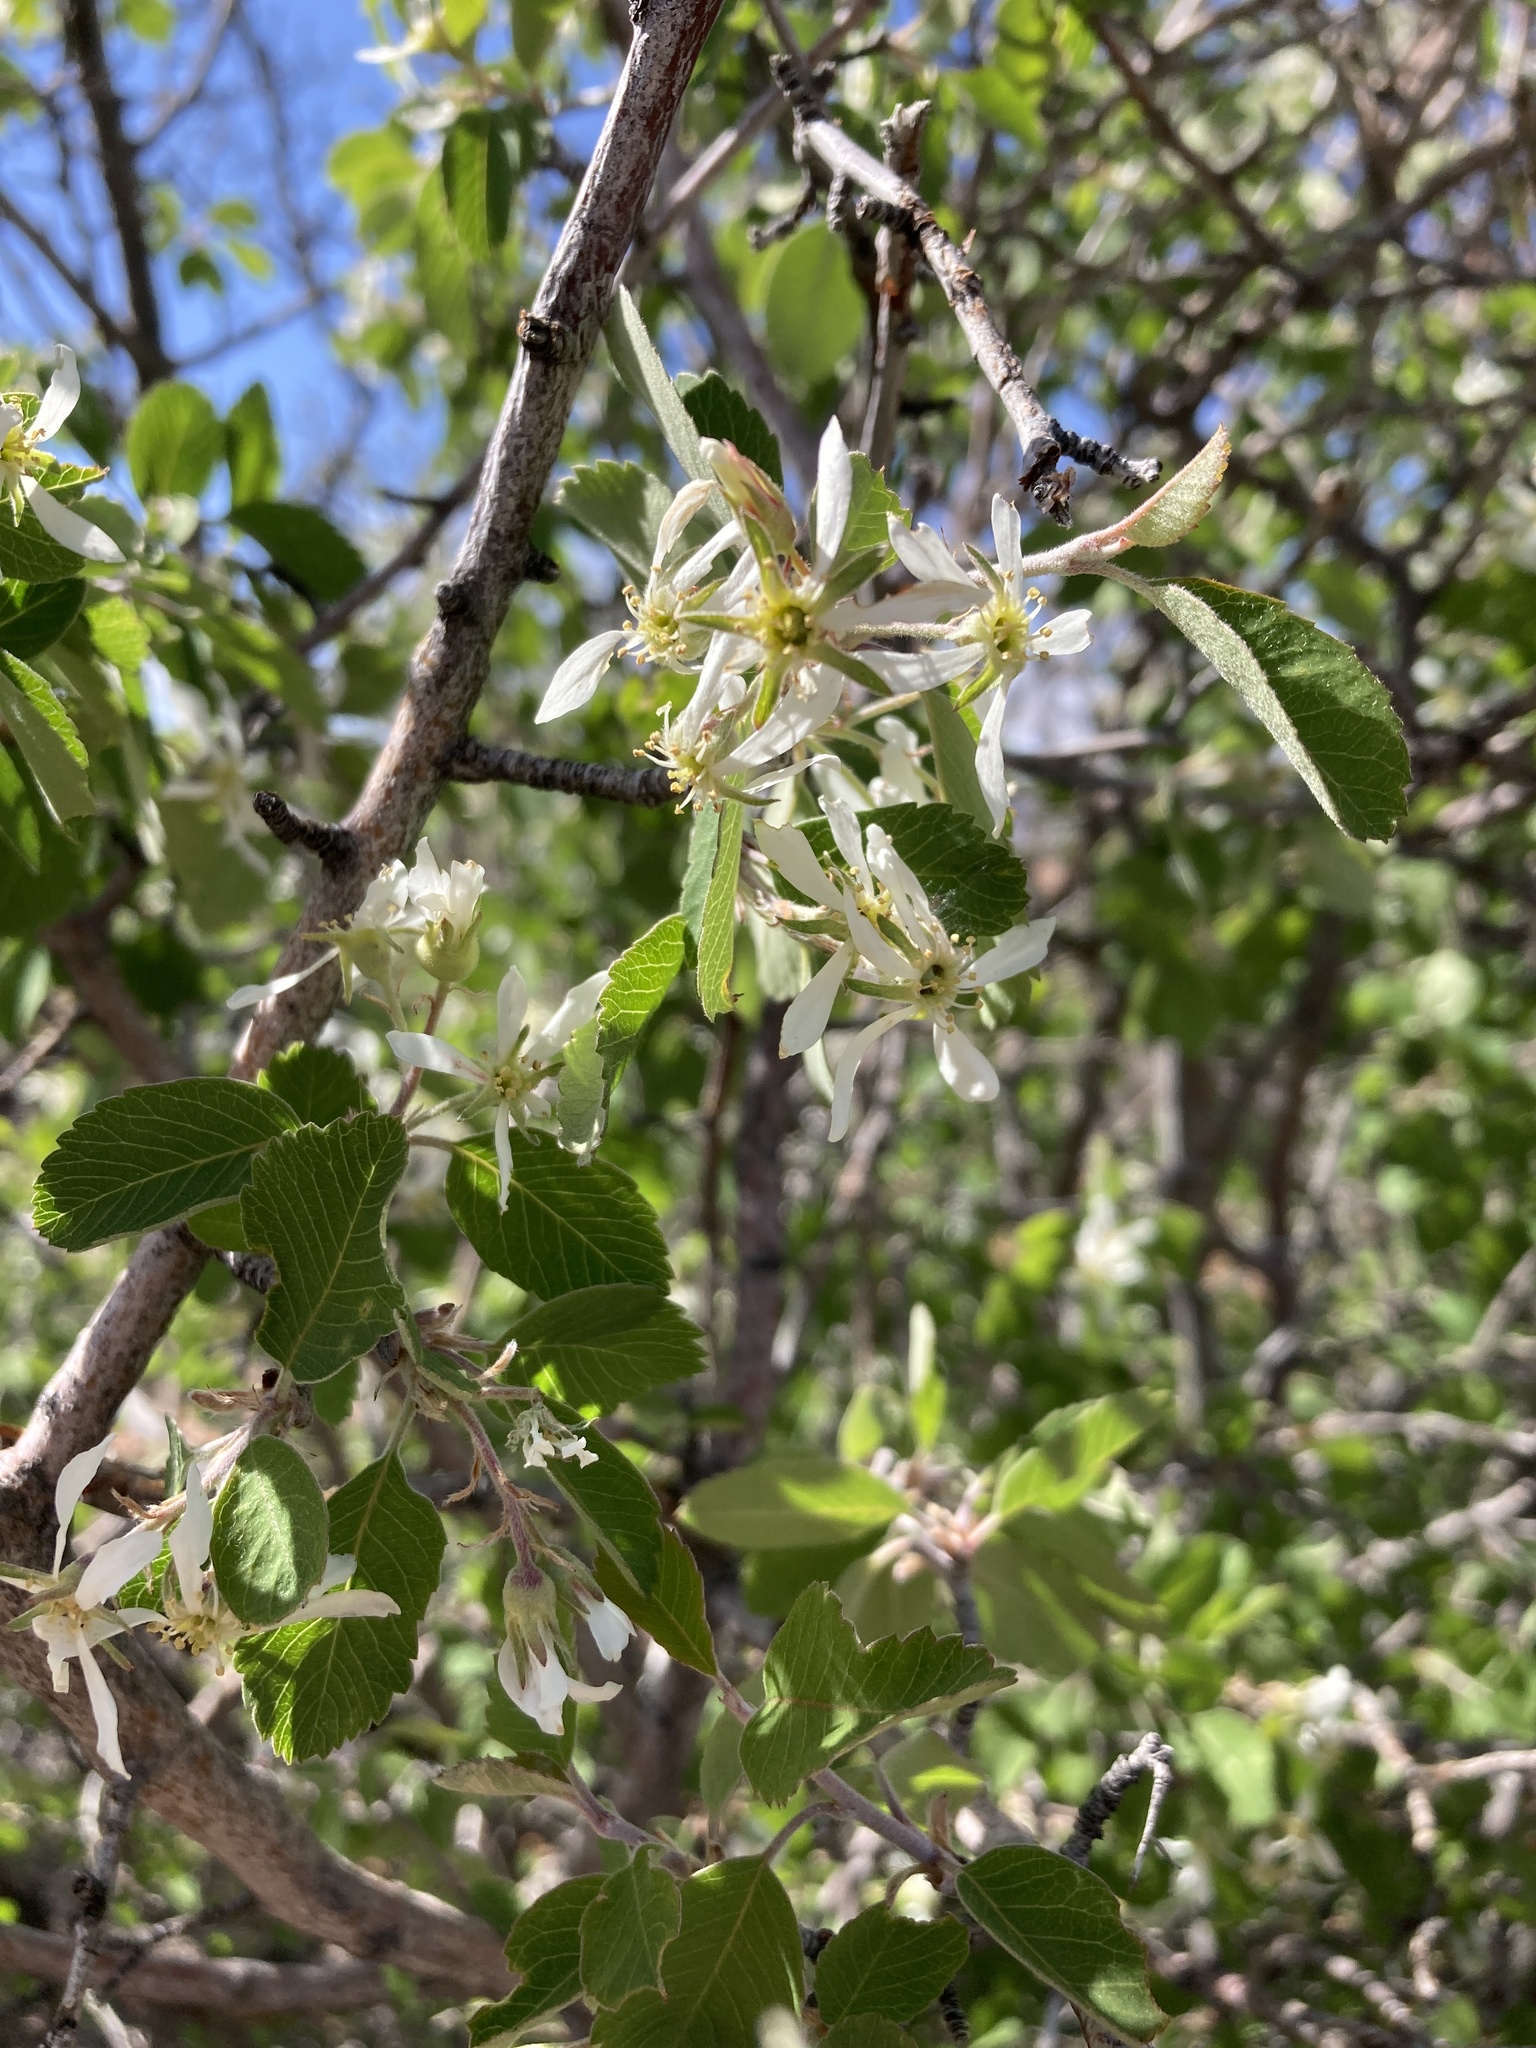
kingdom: Plantae
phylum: Tracheophyta
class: Magnoliopsida
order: Rosales
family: Rosaceae
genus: Amelanchier
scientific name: Amelanchier utahensis
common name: Utah serviceberry
